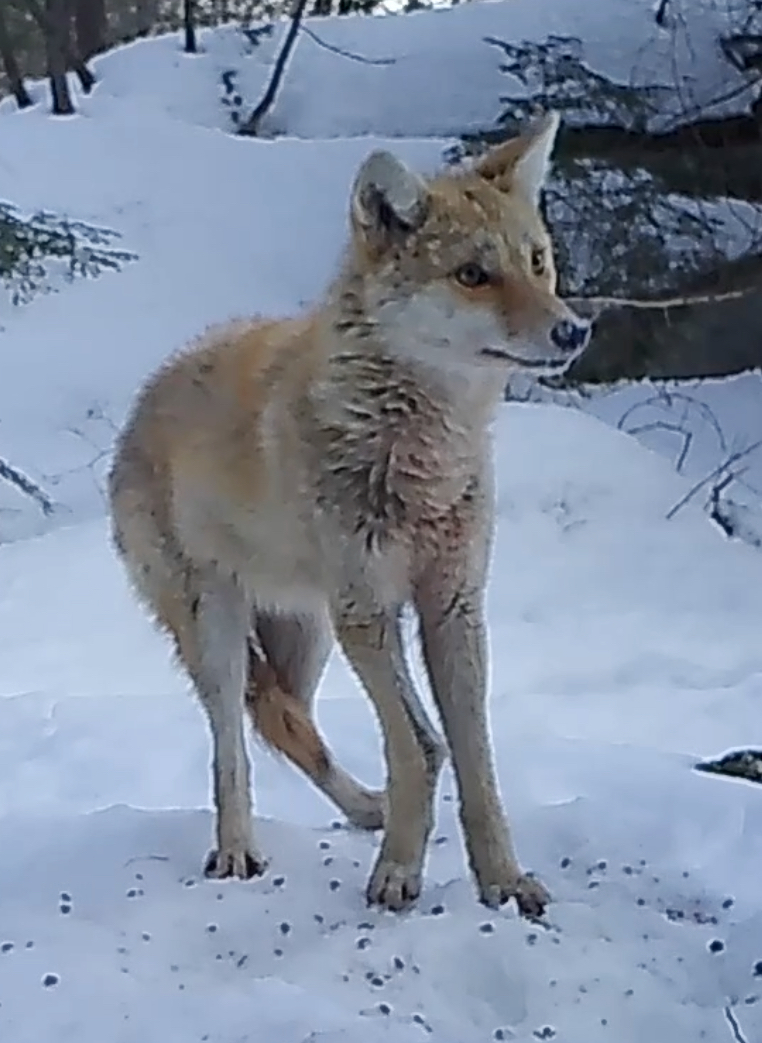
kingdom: Animalia
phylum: Chordata
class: Mammalia
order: Carnivora
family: Canidae
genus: Canis
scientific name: Canis latrans
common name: Coyote
